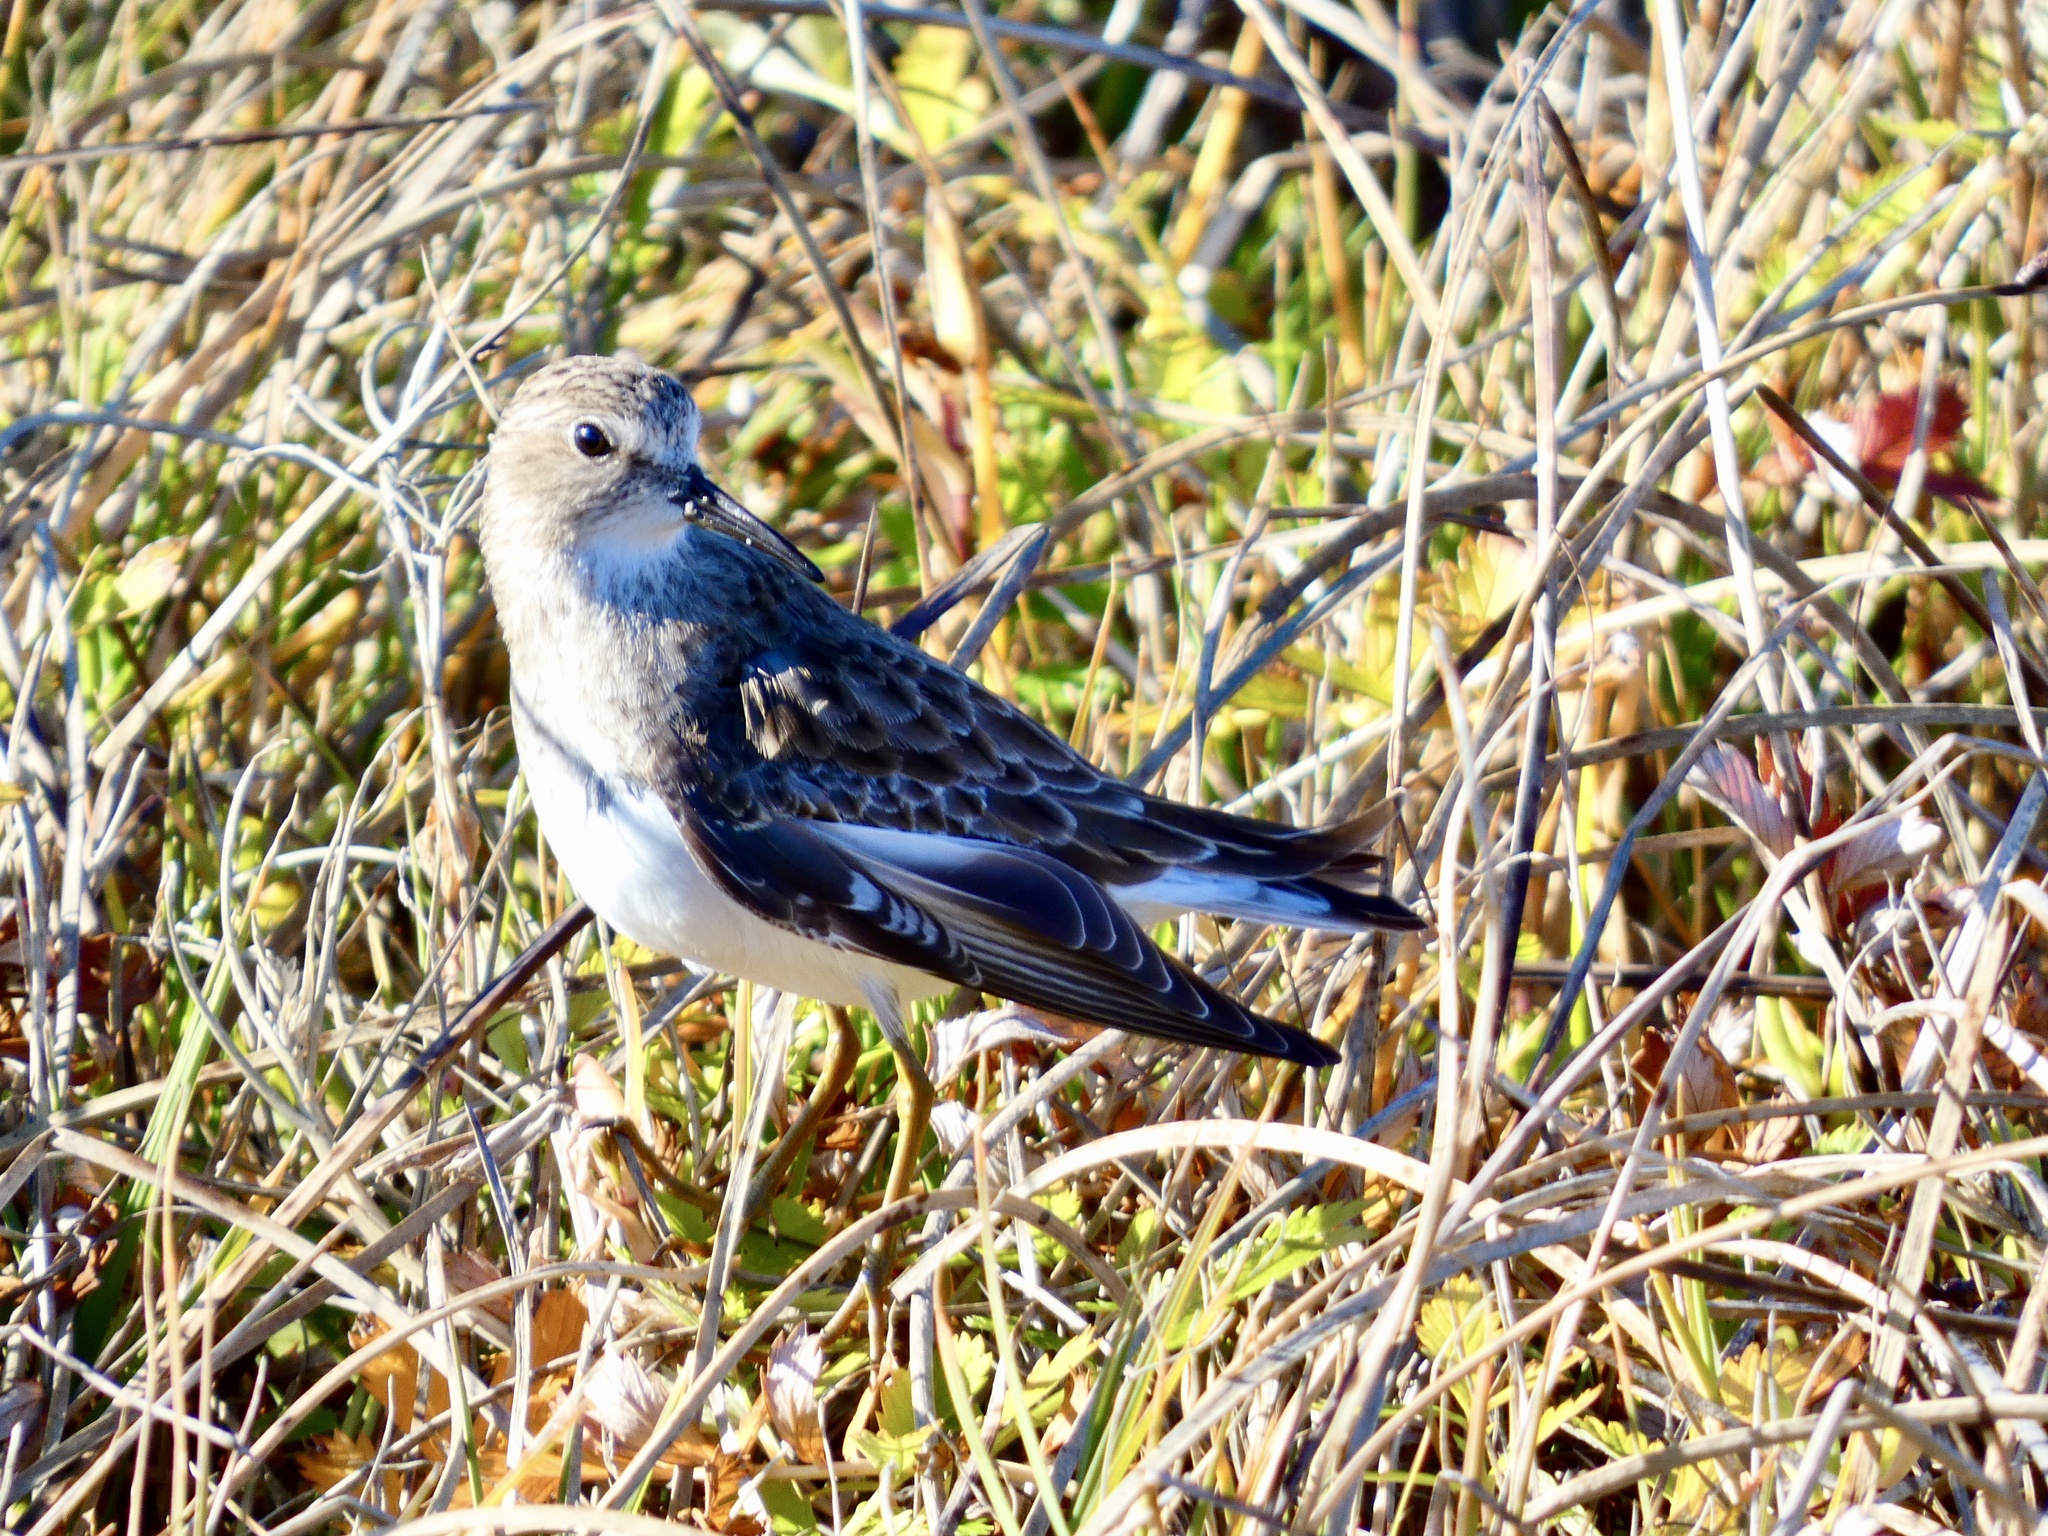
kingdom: Animalia
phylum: Chordata
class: Aves
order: Charadriiformes
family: Scolopacidae
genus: Calidris
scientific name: Calidris minutilla
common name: Least sandpiper
